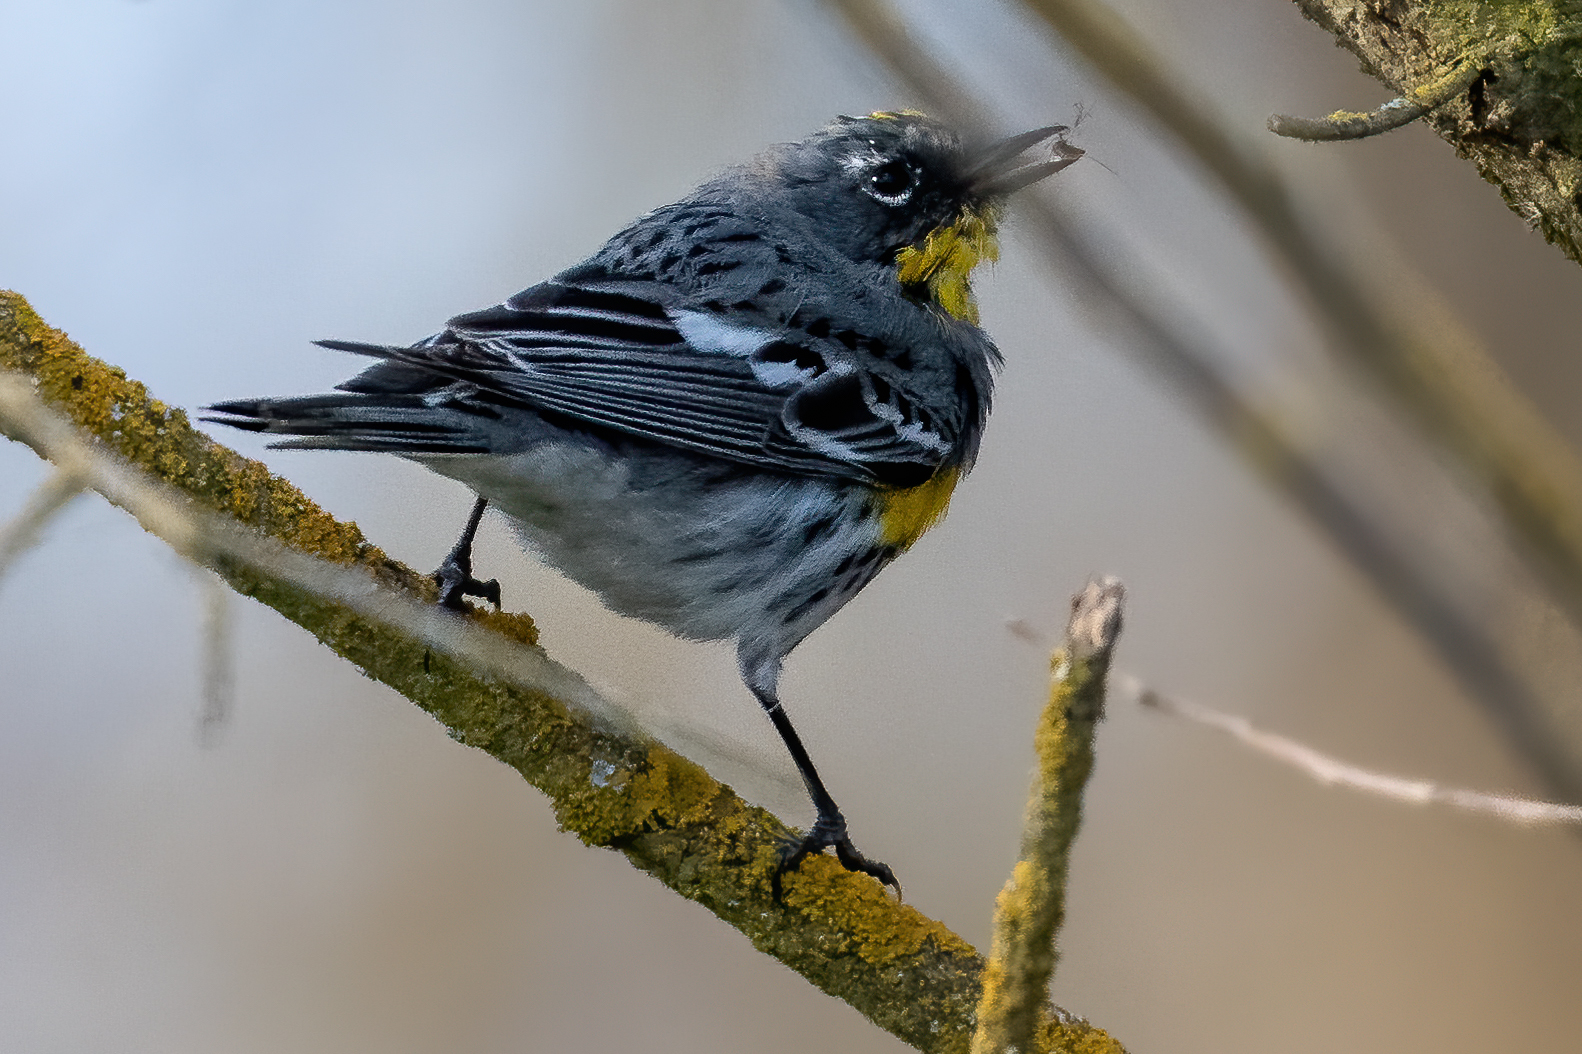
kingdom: Animalia
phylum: Chordata
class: Aves
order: Passeriformes
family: Parulidae
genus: Setophaga
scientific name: Setophaga auduboni
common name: Audubon's warbler
